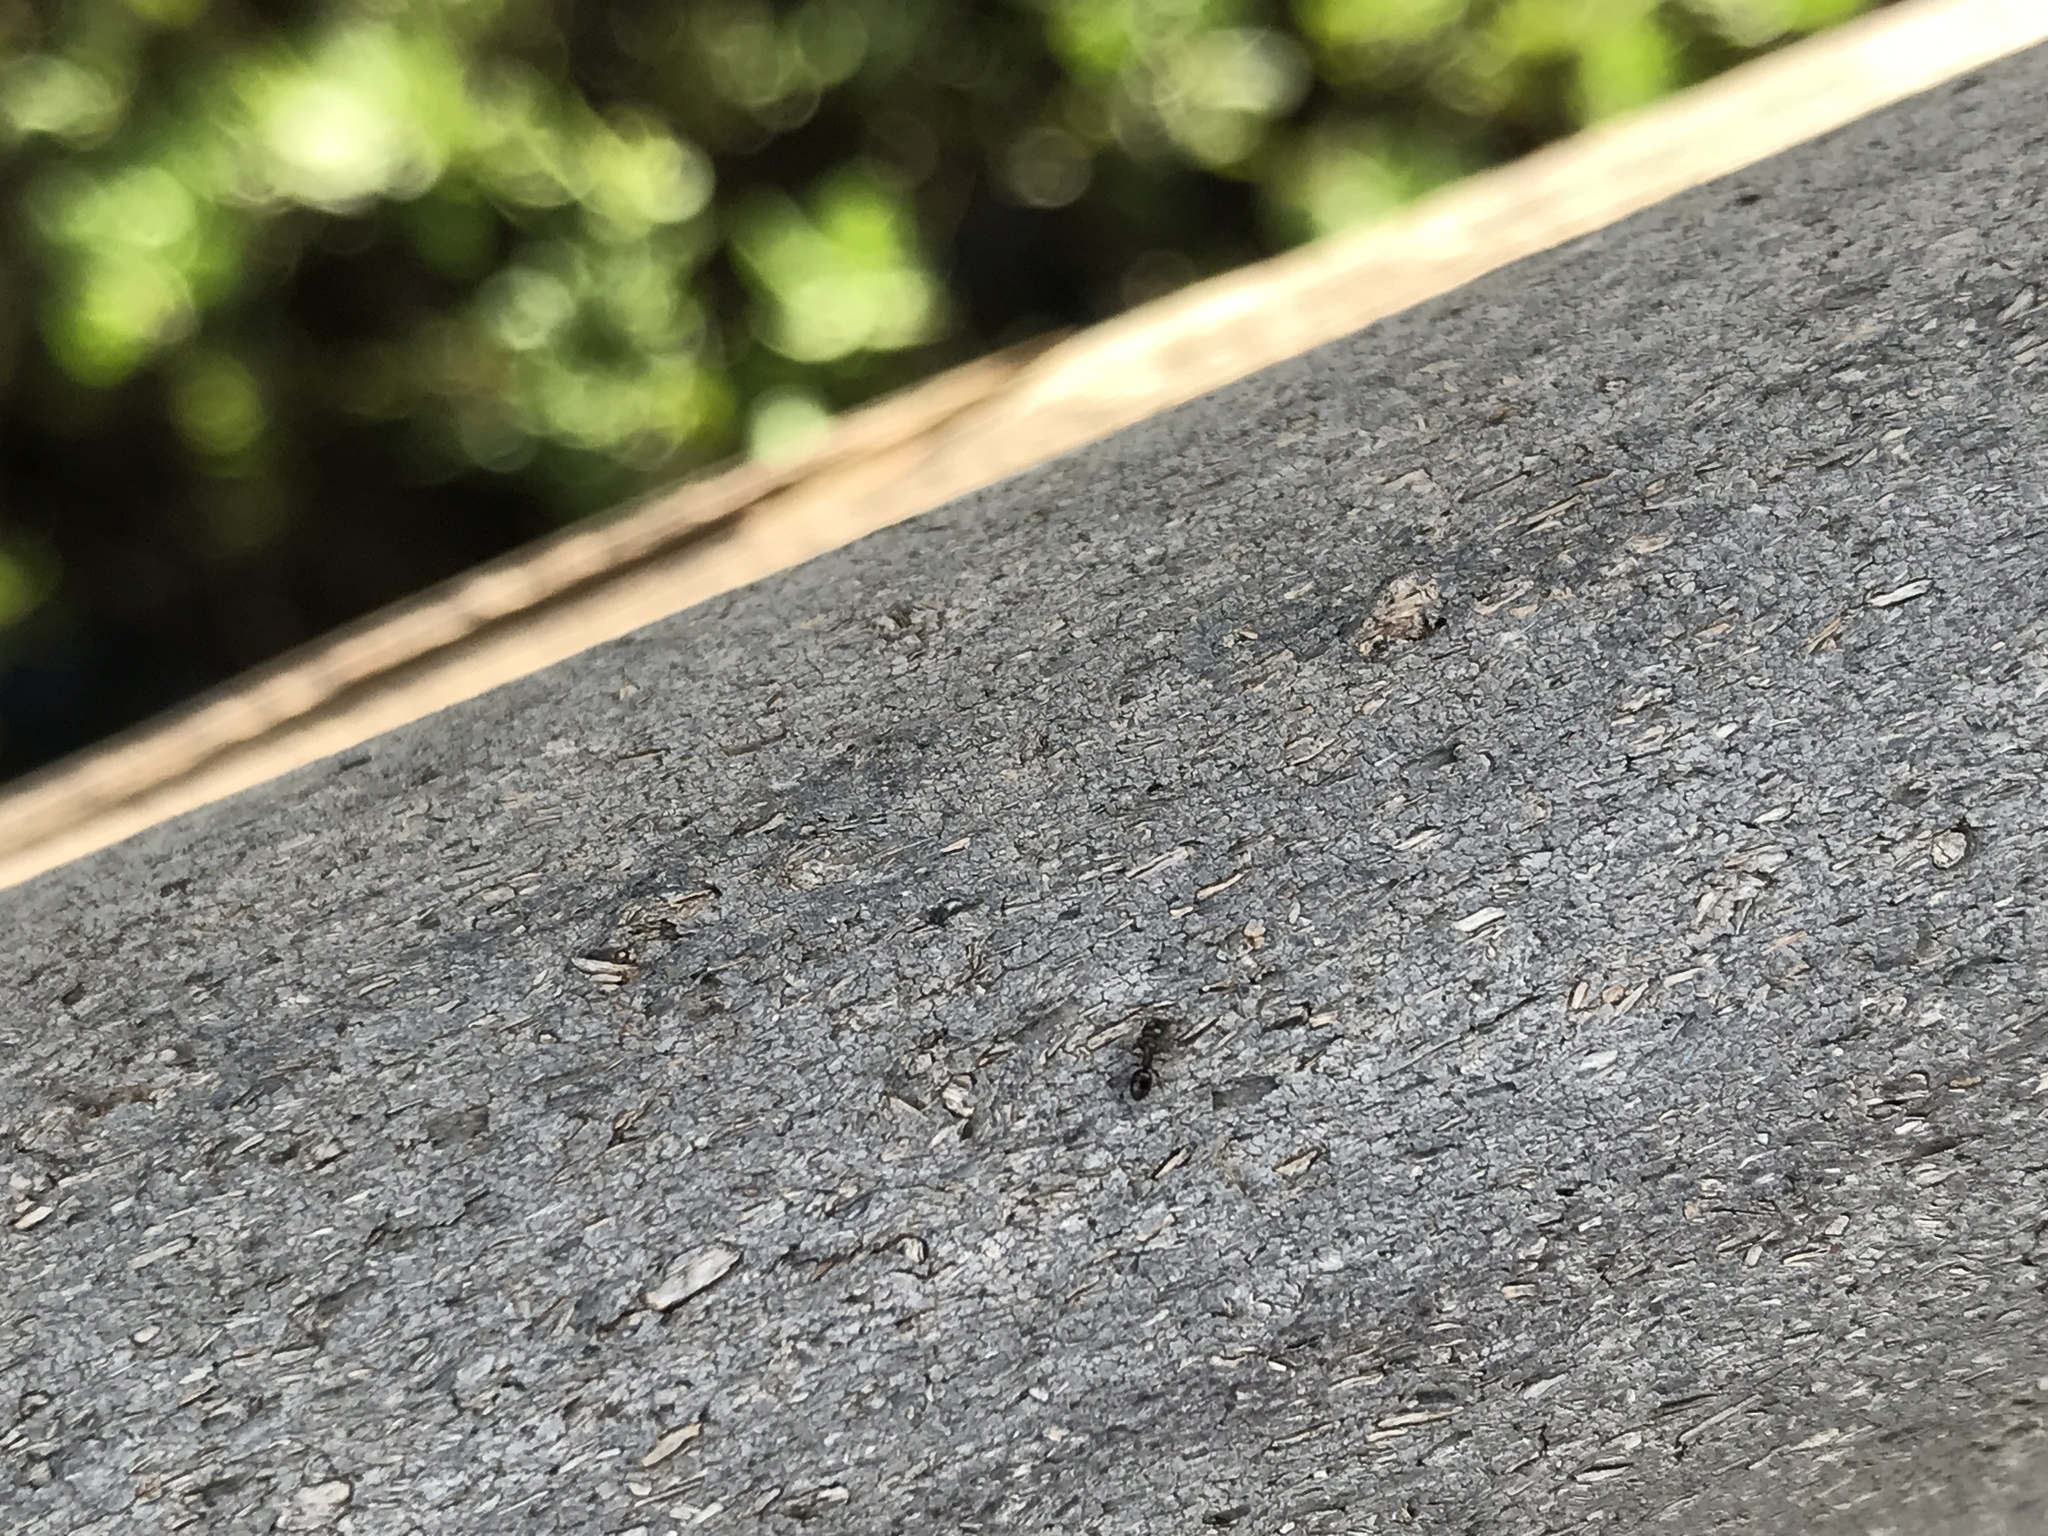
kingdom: Animalia
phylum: Arthropoda
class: Insecta
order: Hymenoptera
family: Formicidae
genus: Ochetellus
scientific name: Ochetellus glaber
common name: Ant
